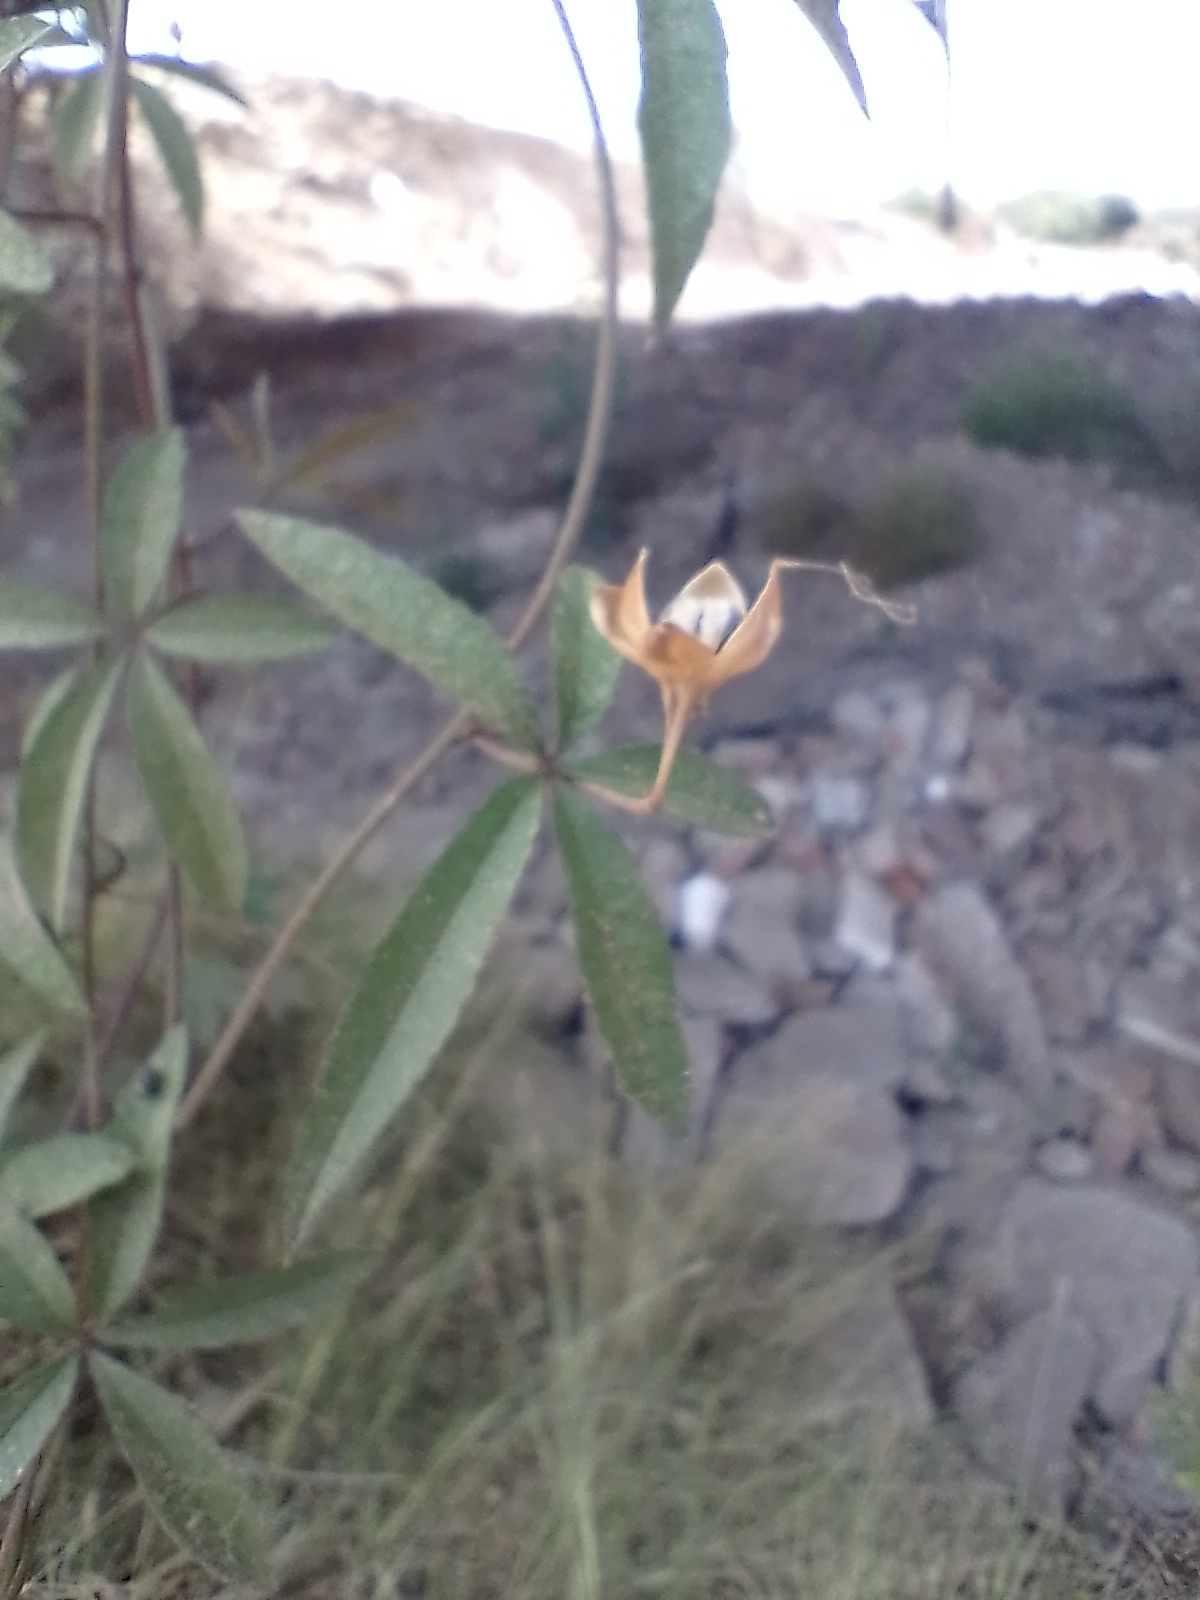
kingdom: Plantae
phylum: Tracheophyta
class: Magnoliopsida
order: Solanales
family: Convolvulaceae
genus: Distimake
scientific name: Distimake quinquefolius
